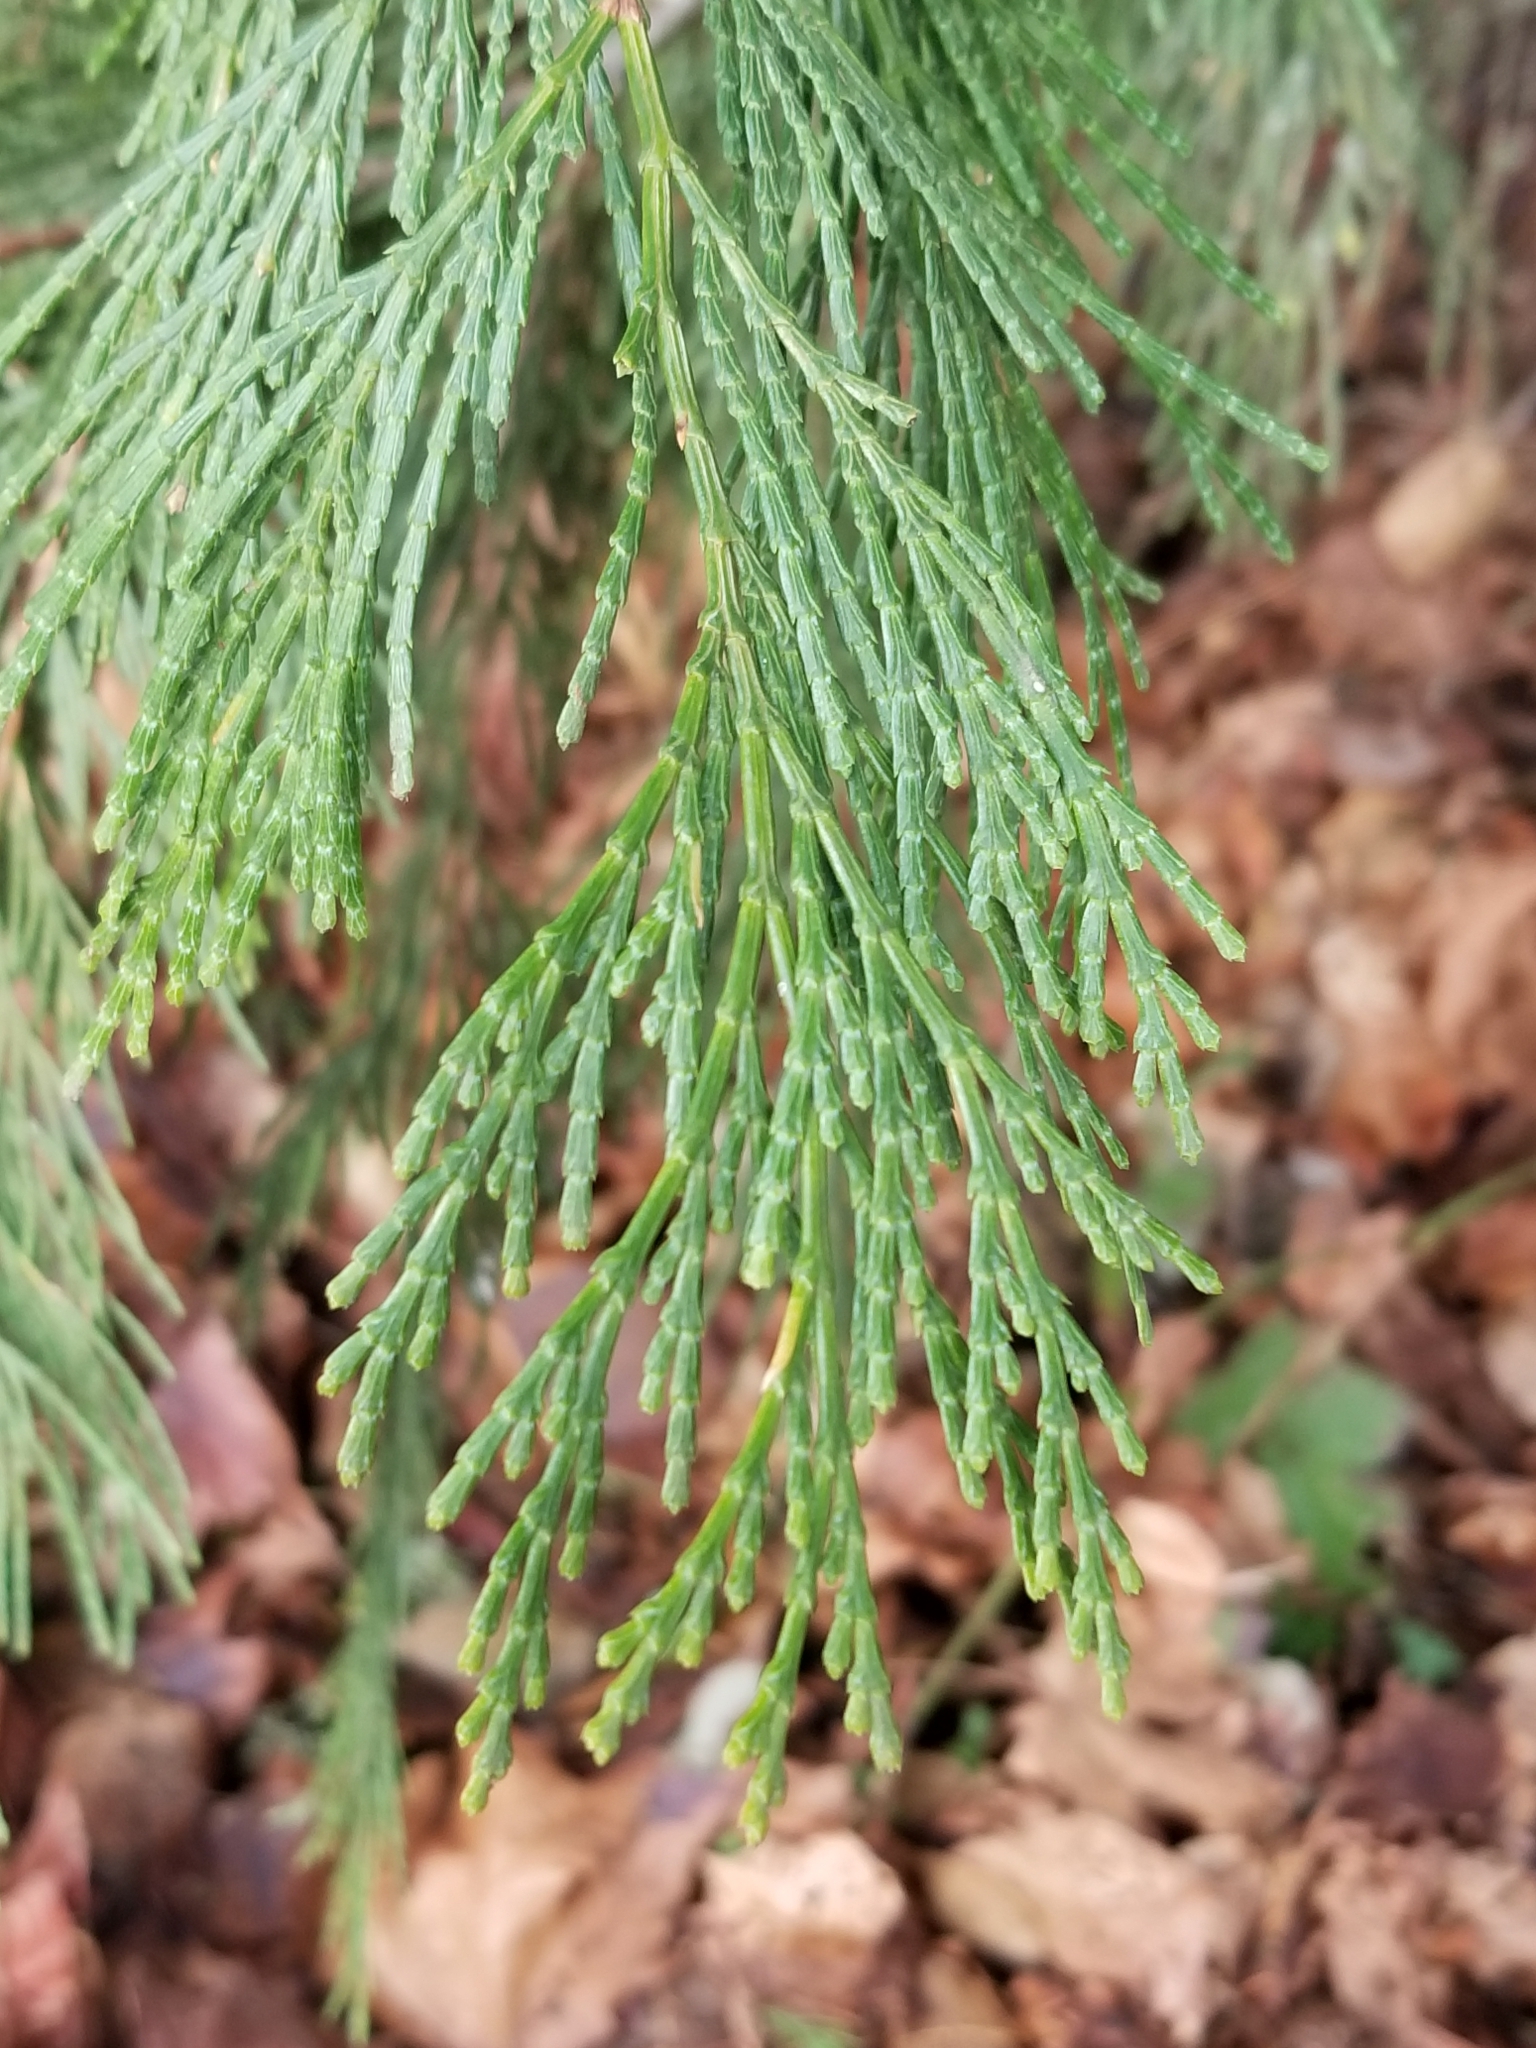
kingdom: Plantae
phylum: Tracheophyta
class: Pinopsida
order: Pinales
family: Cupressaceae
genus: Calocedrus
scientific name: Calocedrus decurrens
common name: Californian incense-cedar
